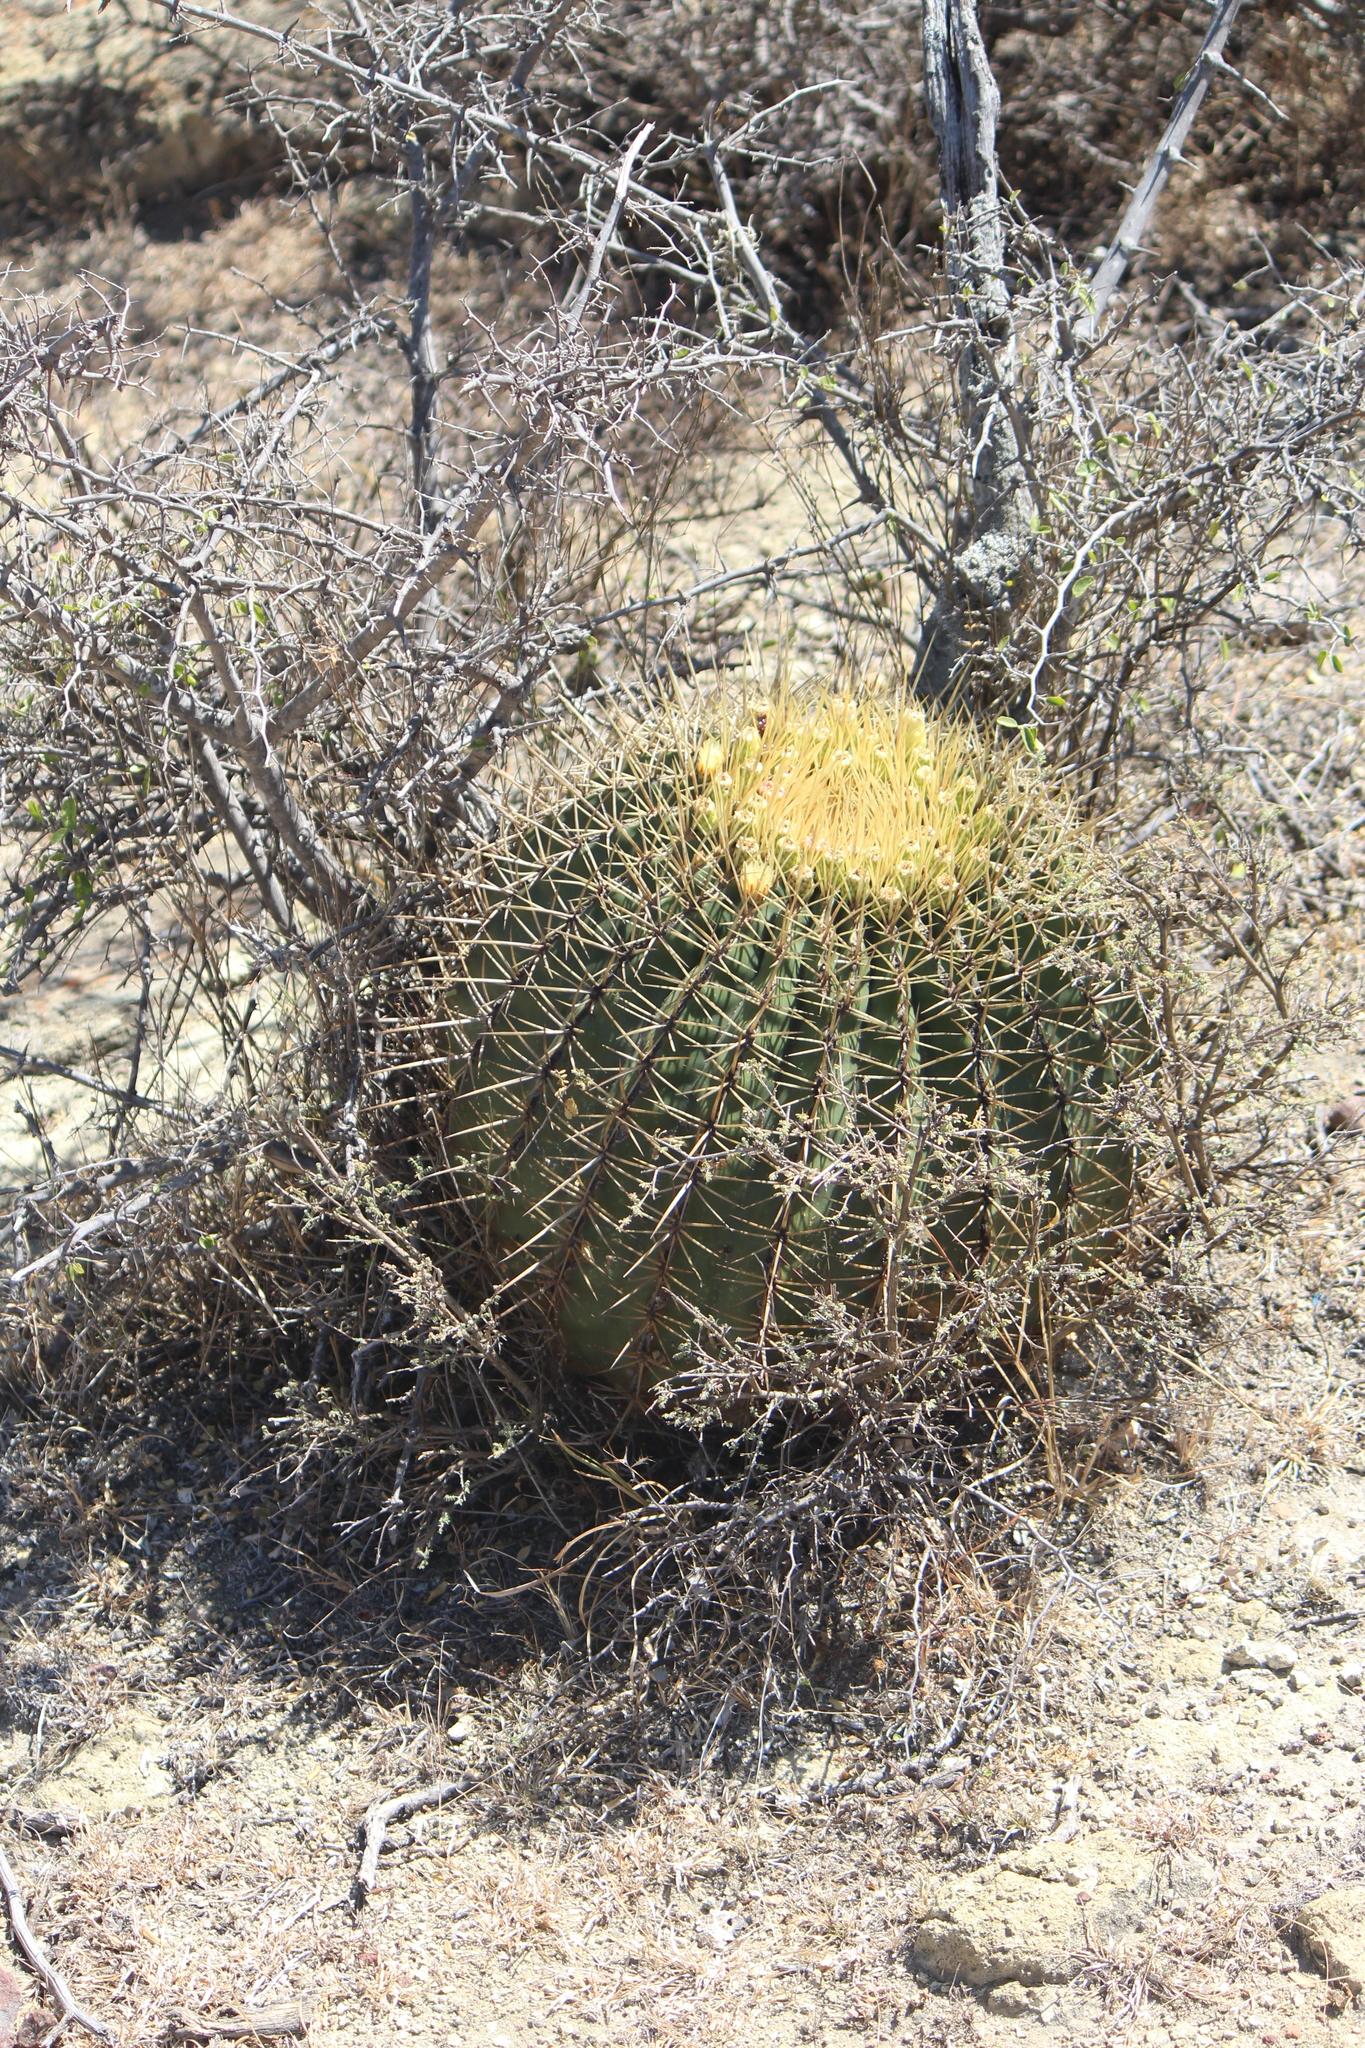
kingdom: Plantae
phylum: Tracheophyta
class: Magnoliopsida
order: Caryophyllales
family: Cactaceae
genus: Bisnaga
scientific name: Bisnaga histrix
